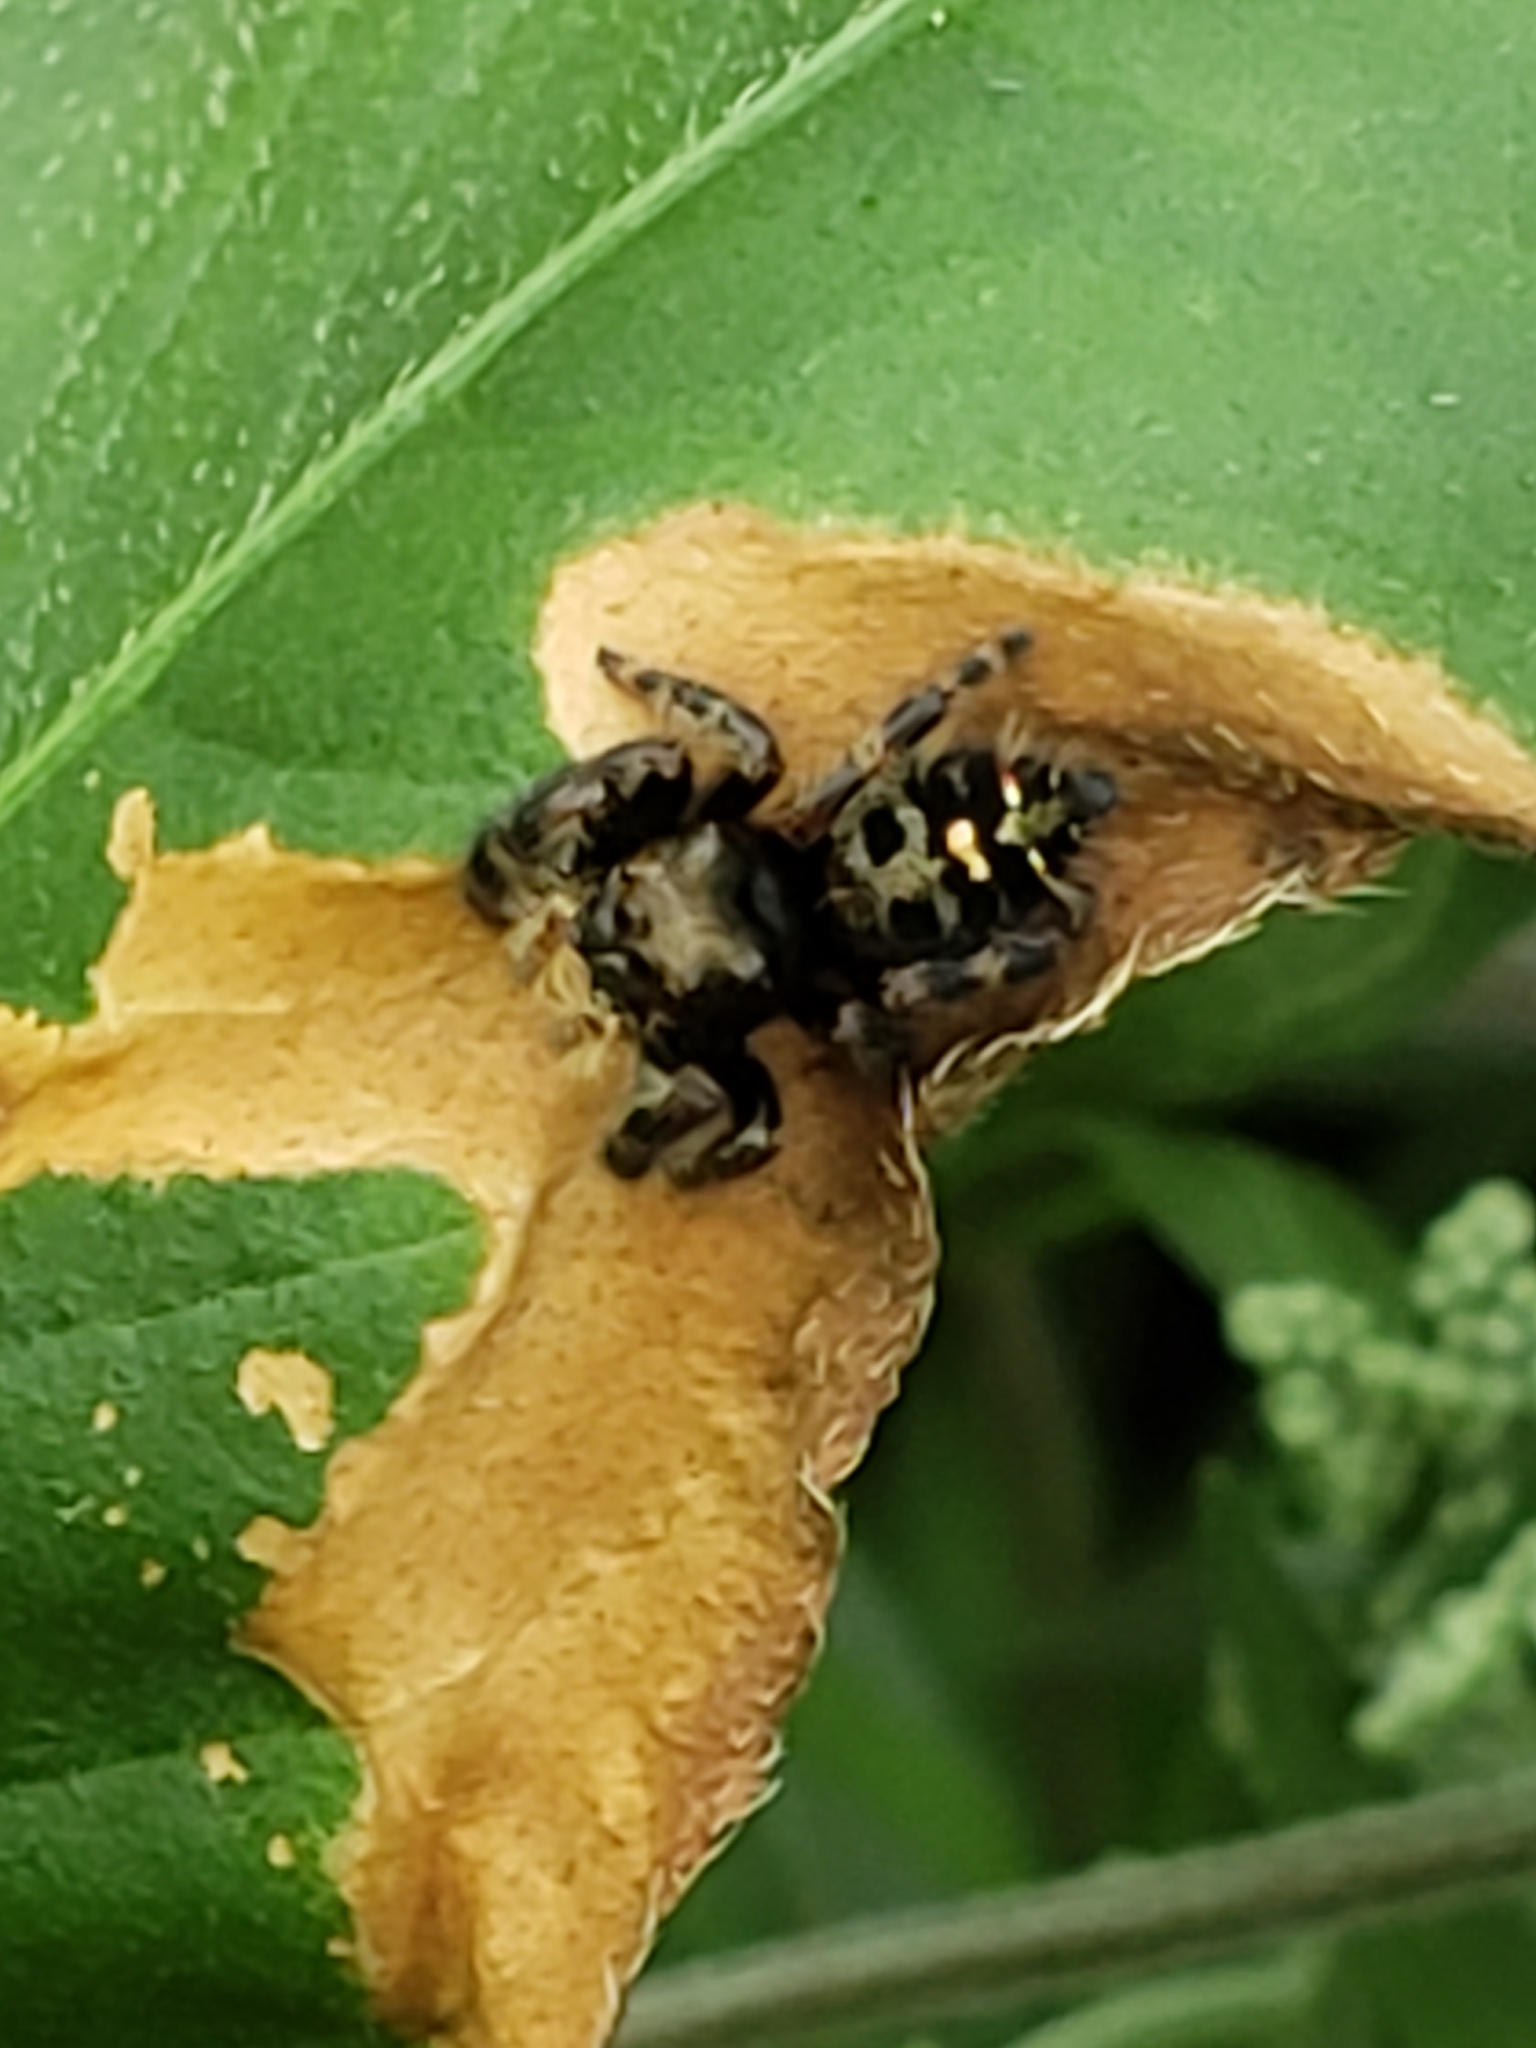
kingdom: Animalia
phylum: Arthropoda
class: Arachnida
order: Araneae
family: Salticidae
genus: Phidippus
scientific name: Phidippus audax
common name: Bold jumper
